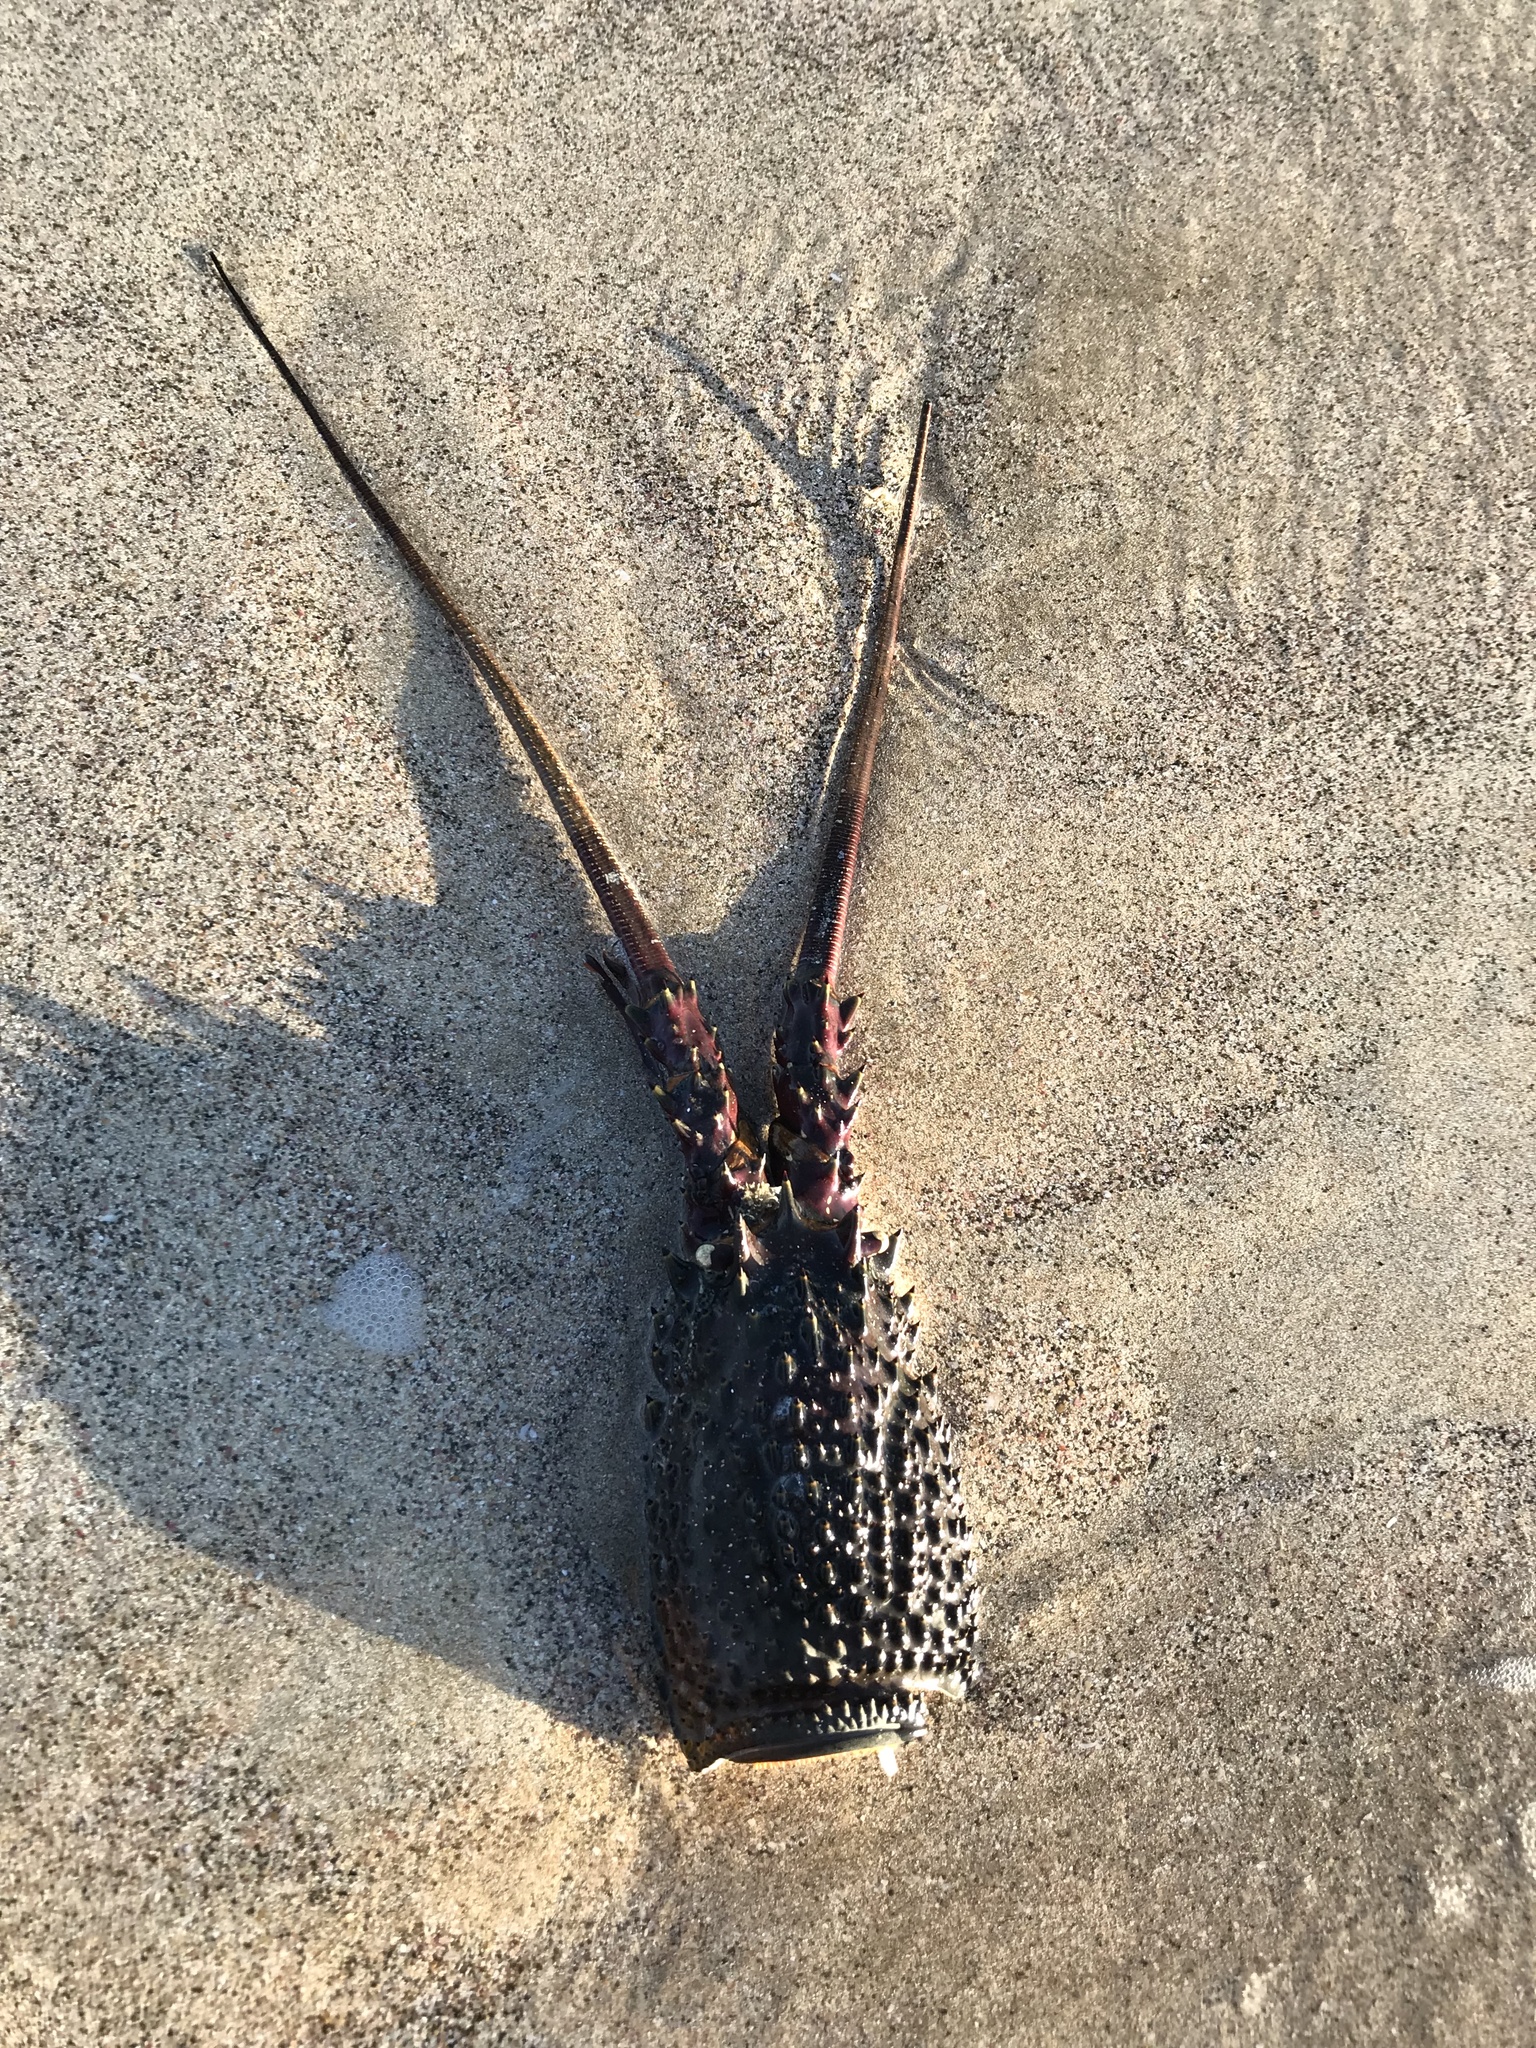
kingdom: Animalia
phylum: Arthropoda
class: Malacostraca
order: Decapoda
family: Palinuridae
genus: Sagmariasus
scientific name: Sagmariasus verreauxi
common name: Green rock lobster
